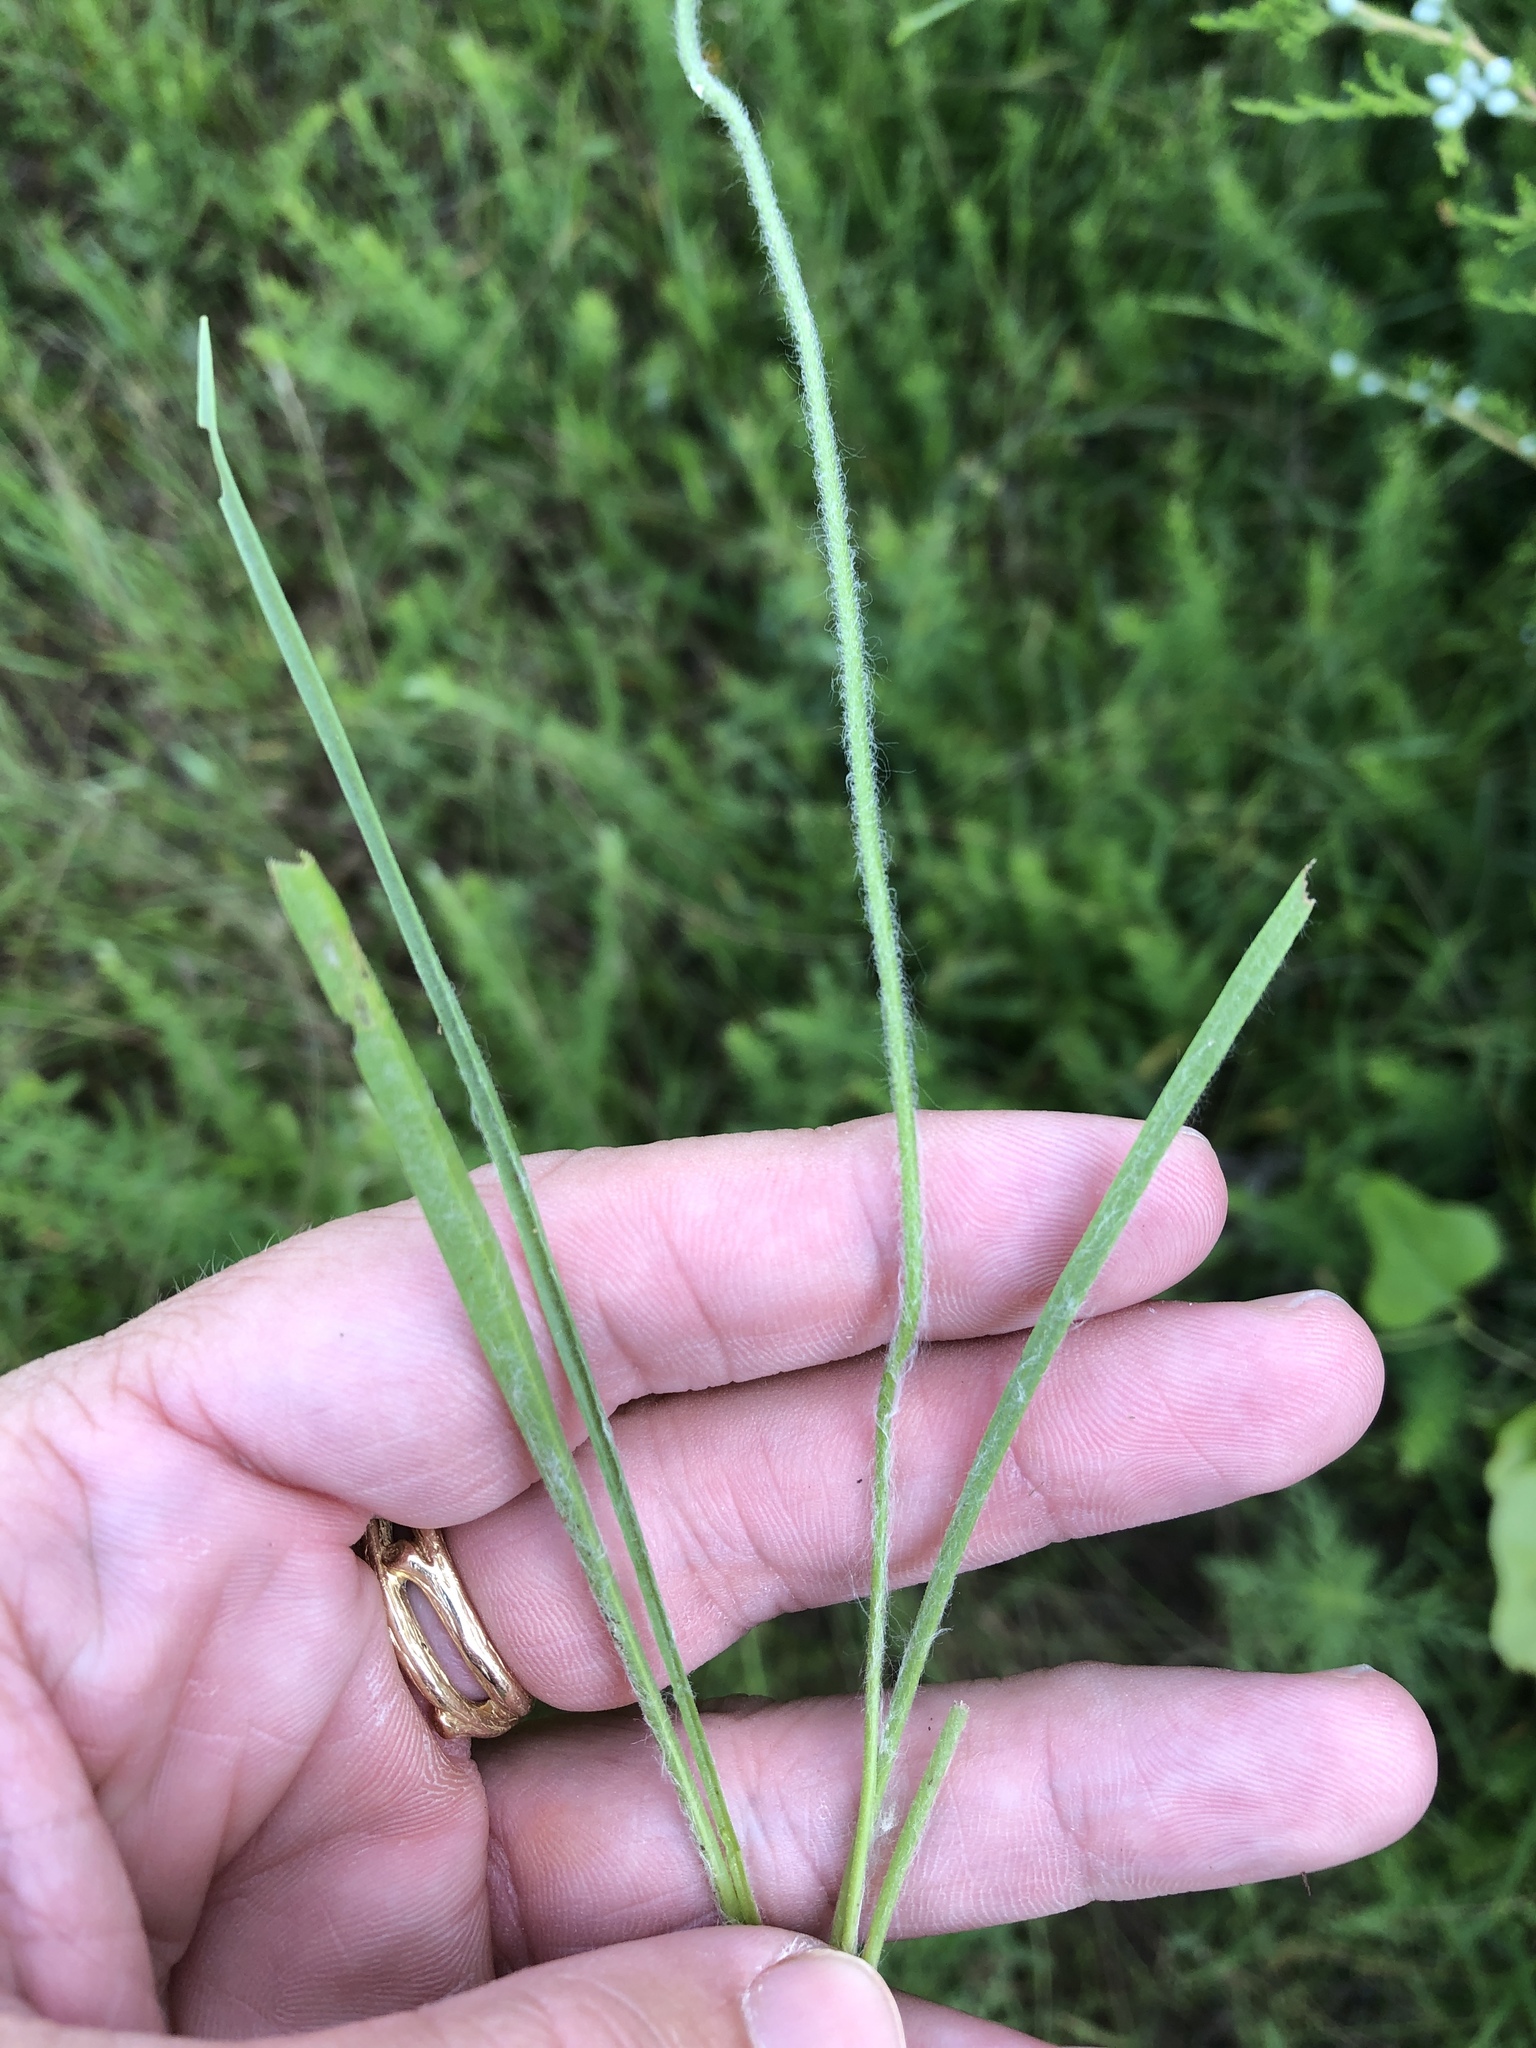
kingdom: Plantae
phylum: Tracheophyta
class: Magnoliopsida
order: Lamiales
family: Plantaginaceae
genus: Plantago
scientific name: Plantago aristata
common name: Bracted plantain
